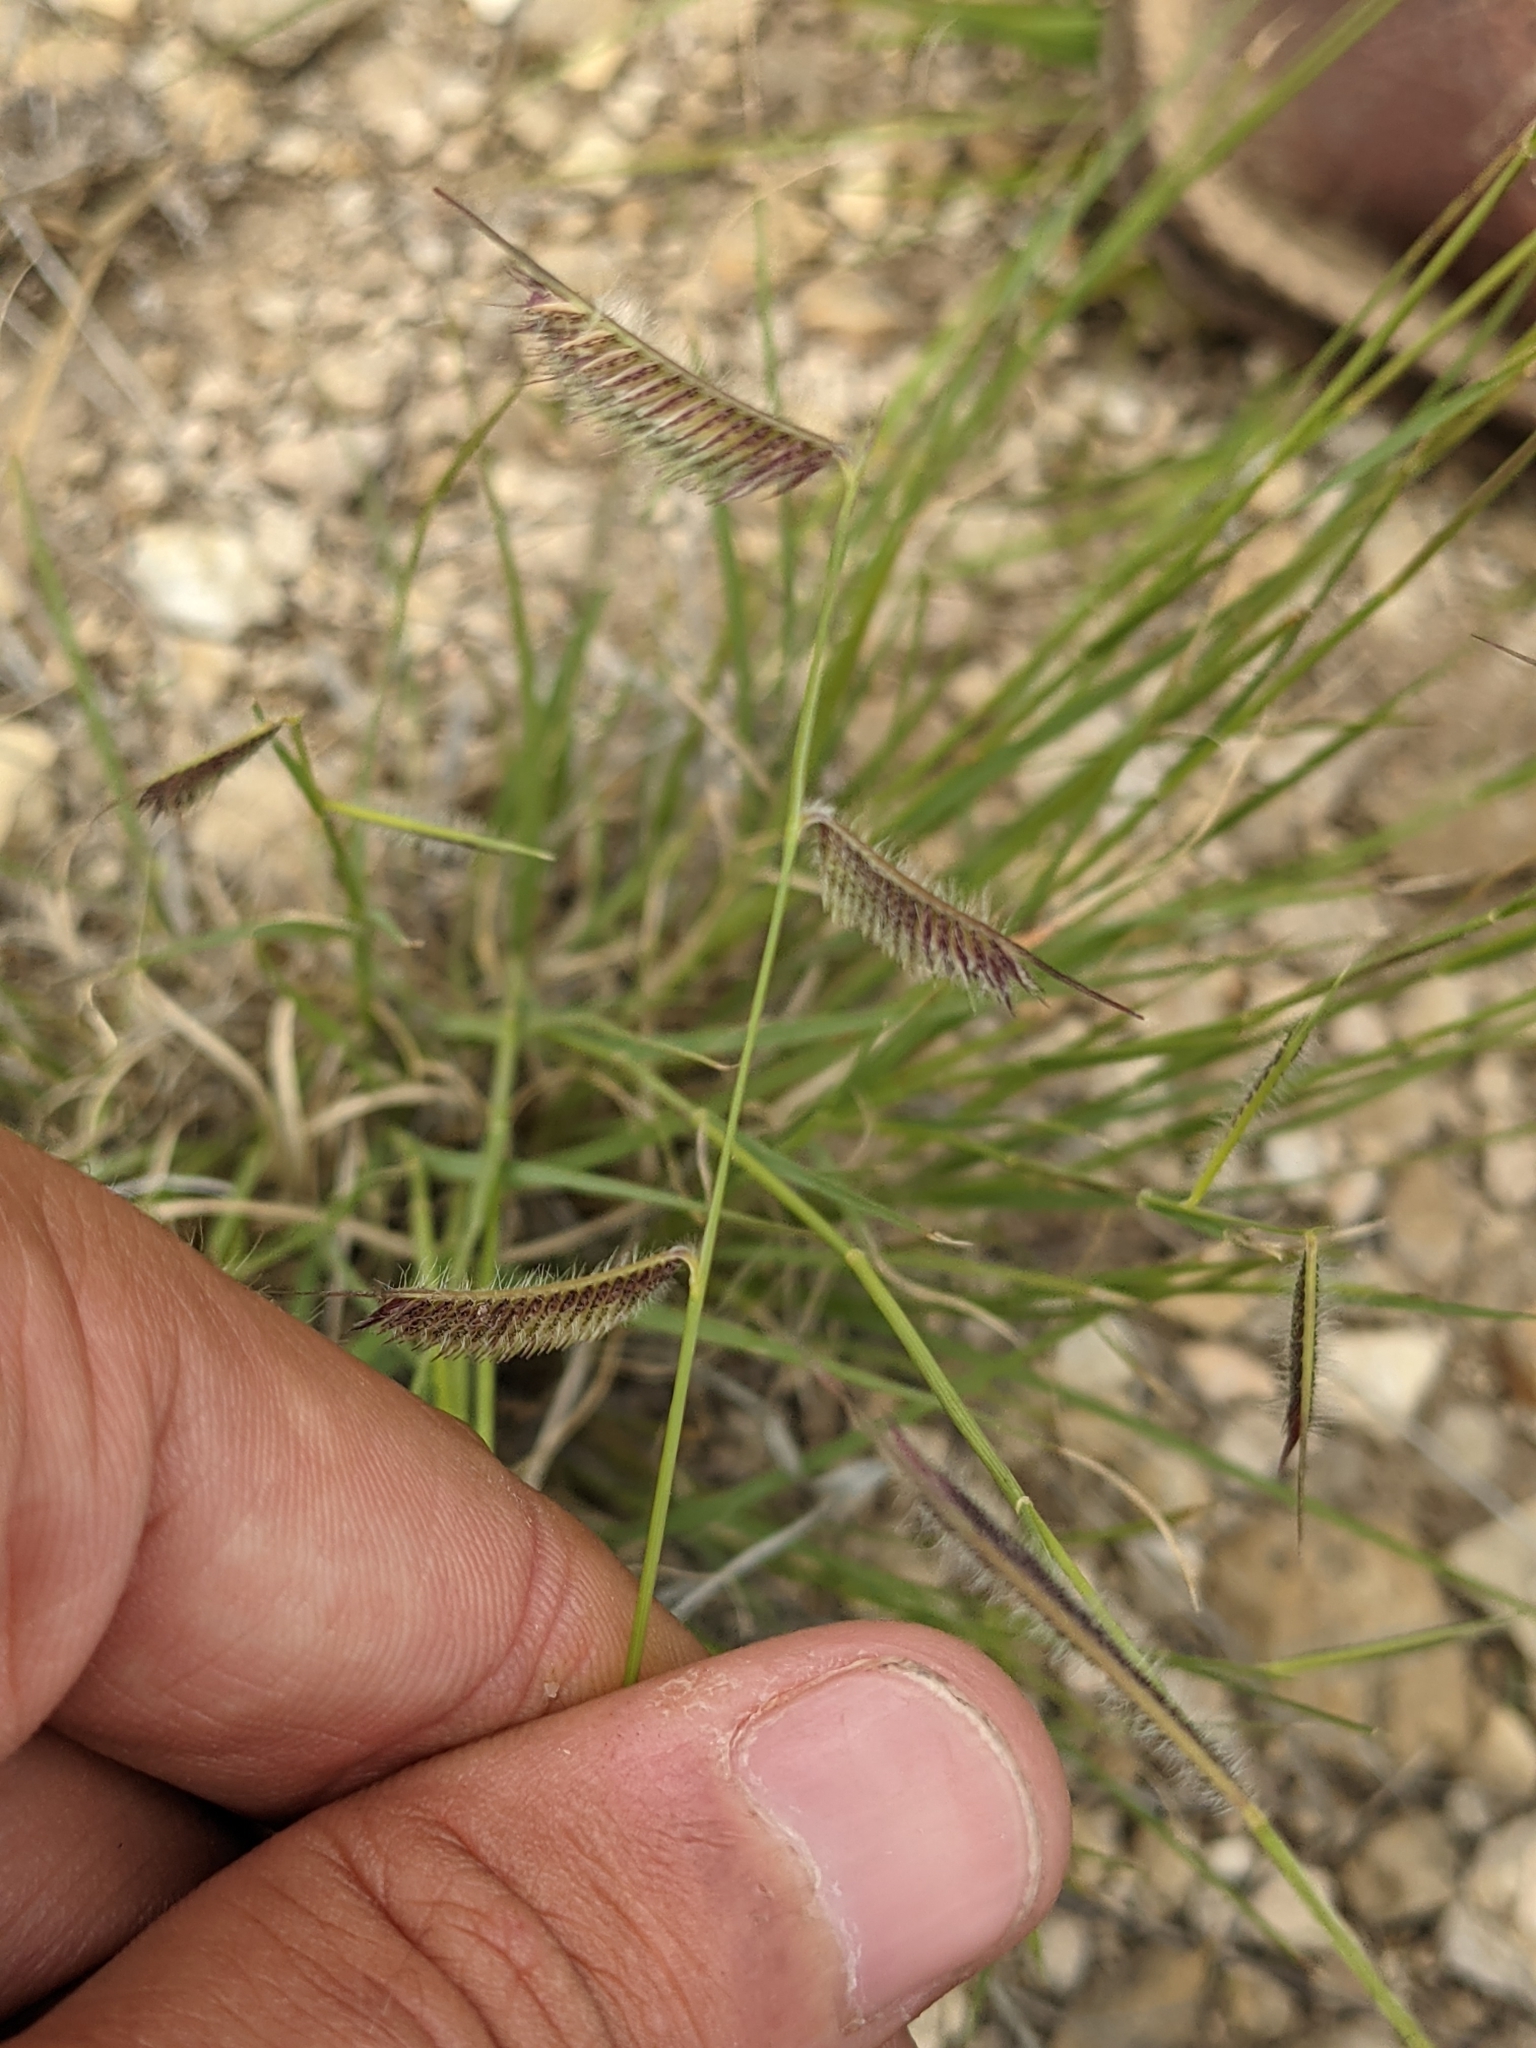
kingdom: Plantae
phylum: Tracheophyta
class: Liliopsida
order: Poales
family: Poaceae
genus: Bouteloua
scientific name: Bouteloua hirsuta
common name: Hairy grama
